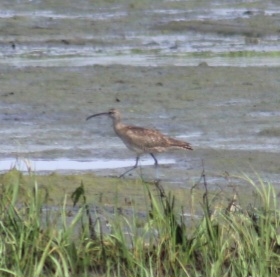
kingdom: Animalia
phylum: Chordata
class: Aves
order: Charadriiformes
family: Scolopacidae
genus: Numenius
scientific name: Numenius phaeopus
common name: Whimbrel
